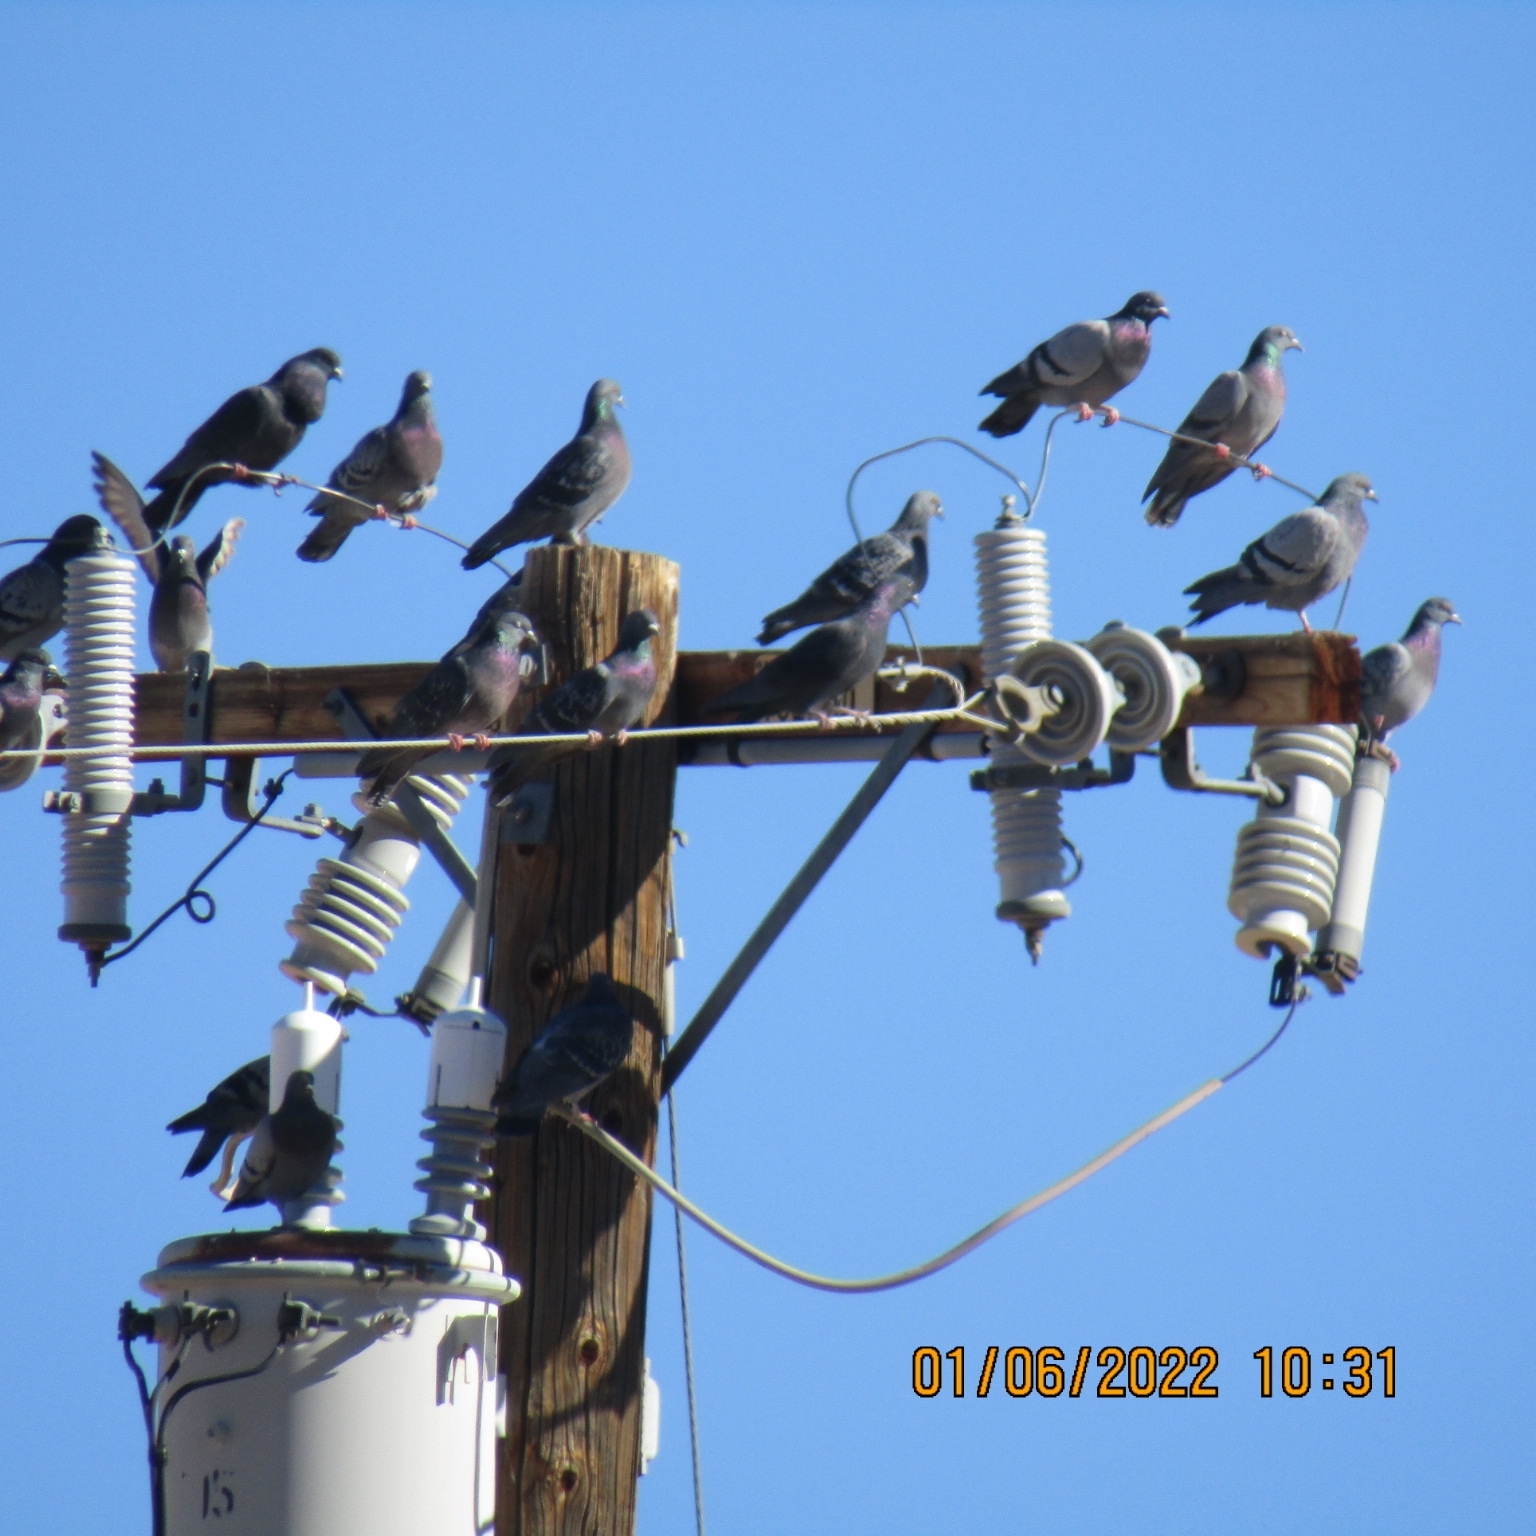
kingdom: Animalia
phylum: Chordata
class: Aves
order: Columbiformes
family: Columbidae
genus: Columba
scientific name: Columba livia
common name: Rock pigeon
